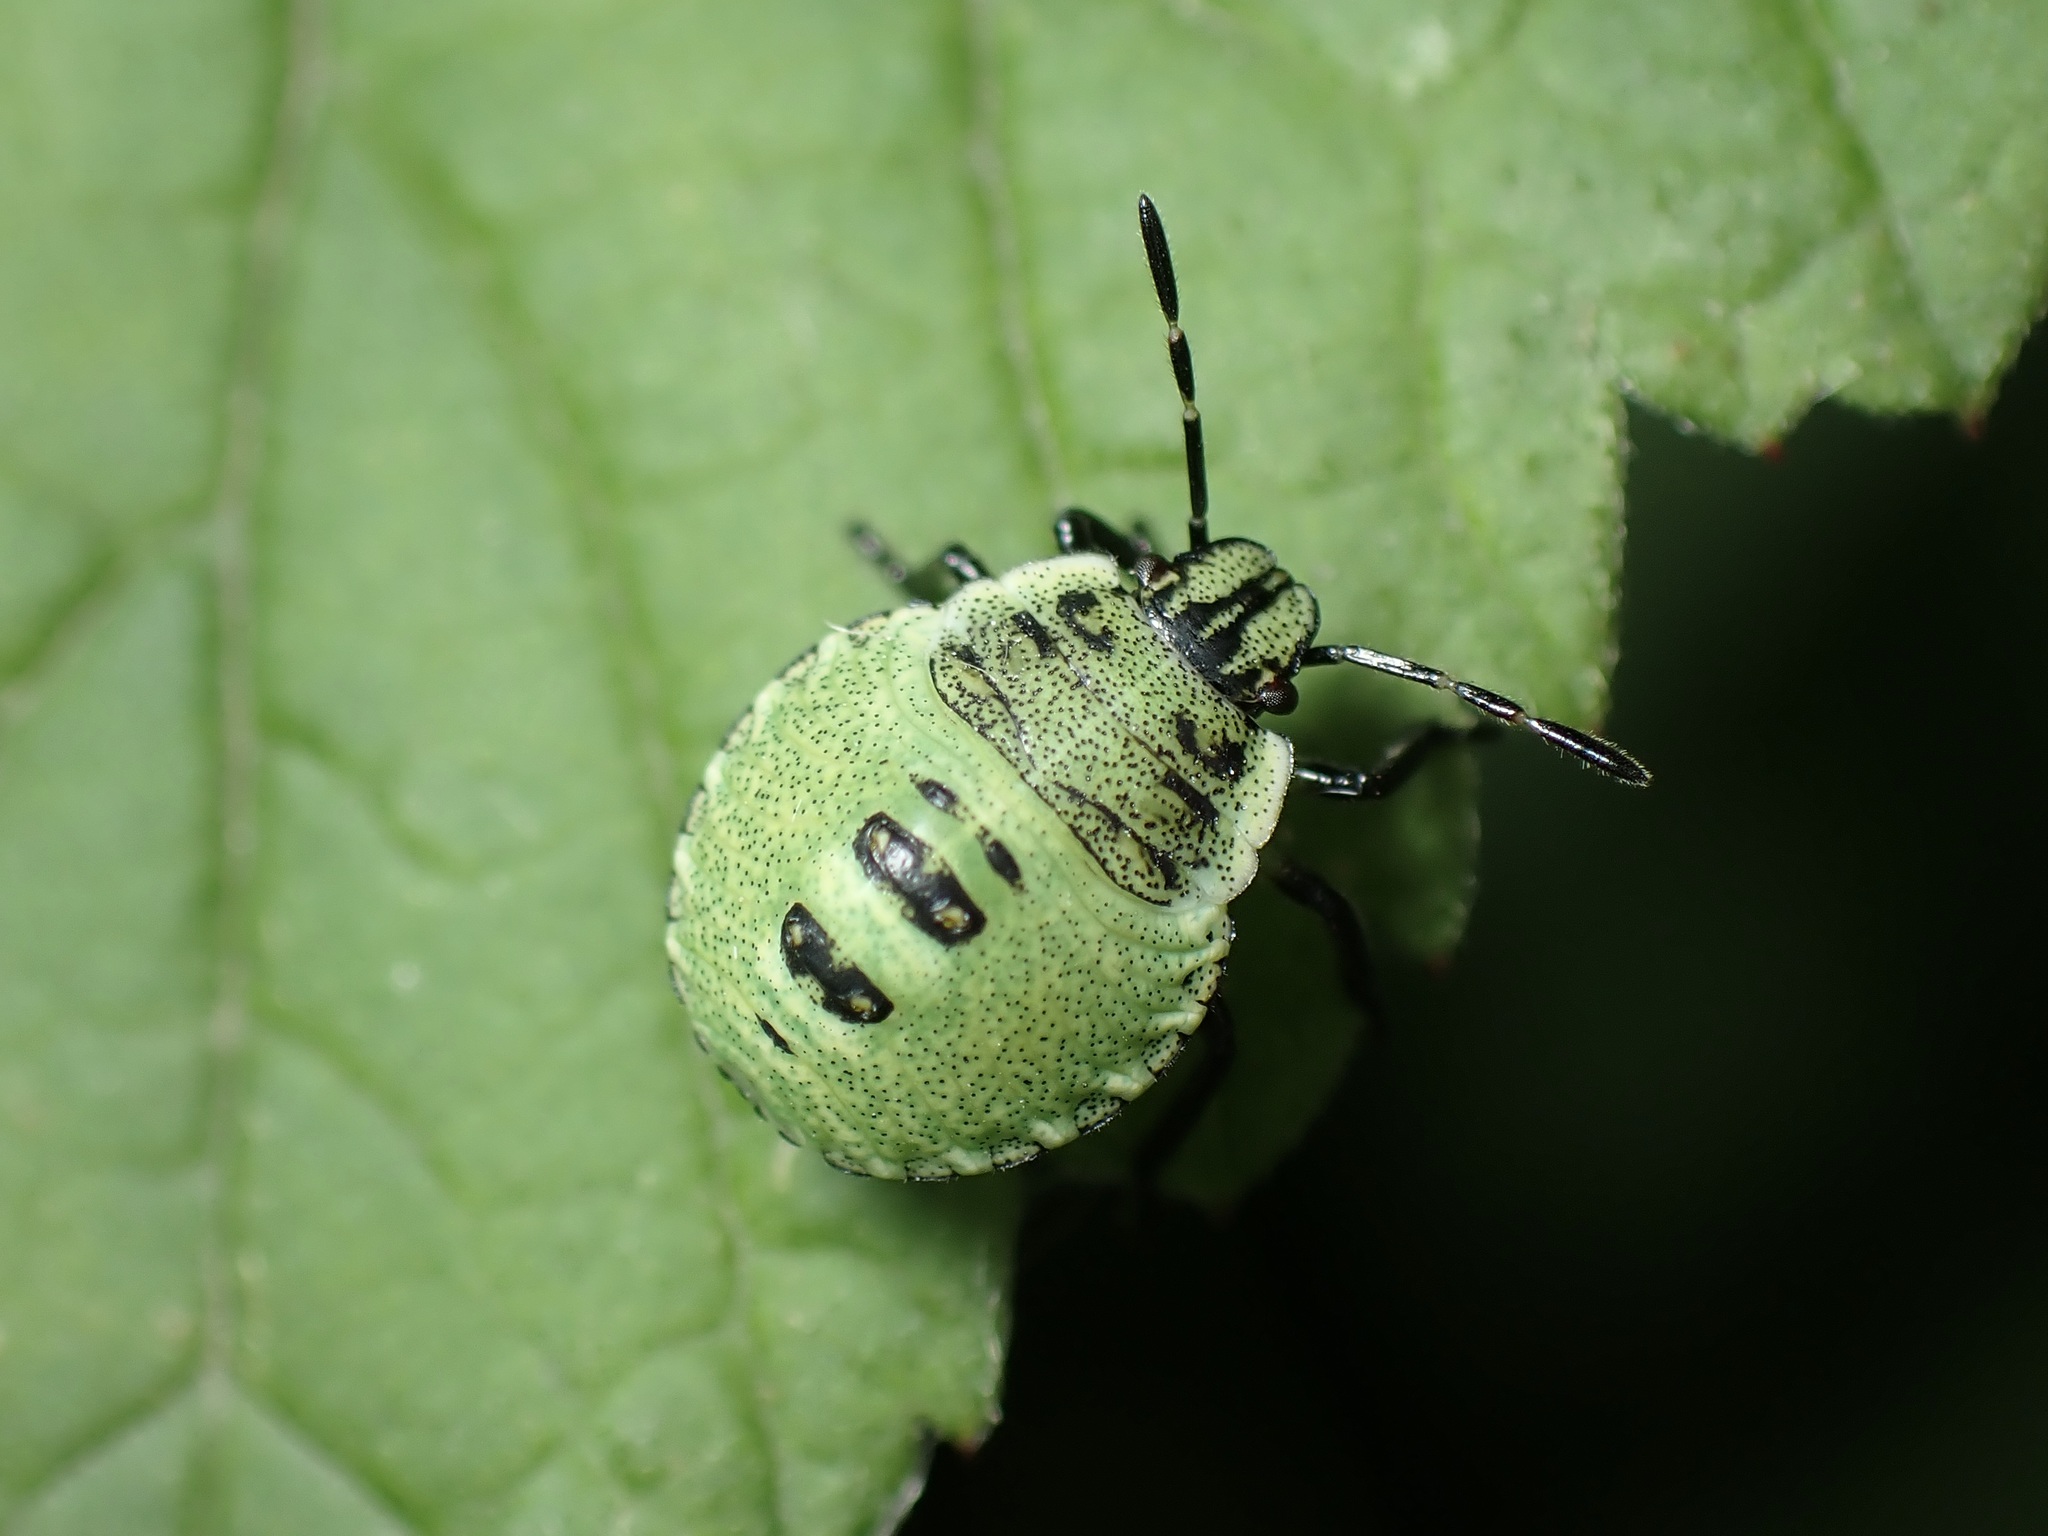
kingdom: Animalia
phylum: Arthropoda
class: Insecta
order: Hemiptera
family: Pentatomidae
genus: Palomena
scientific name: Palomena prasina
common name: Green shieldbug
